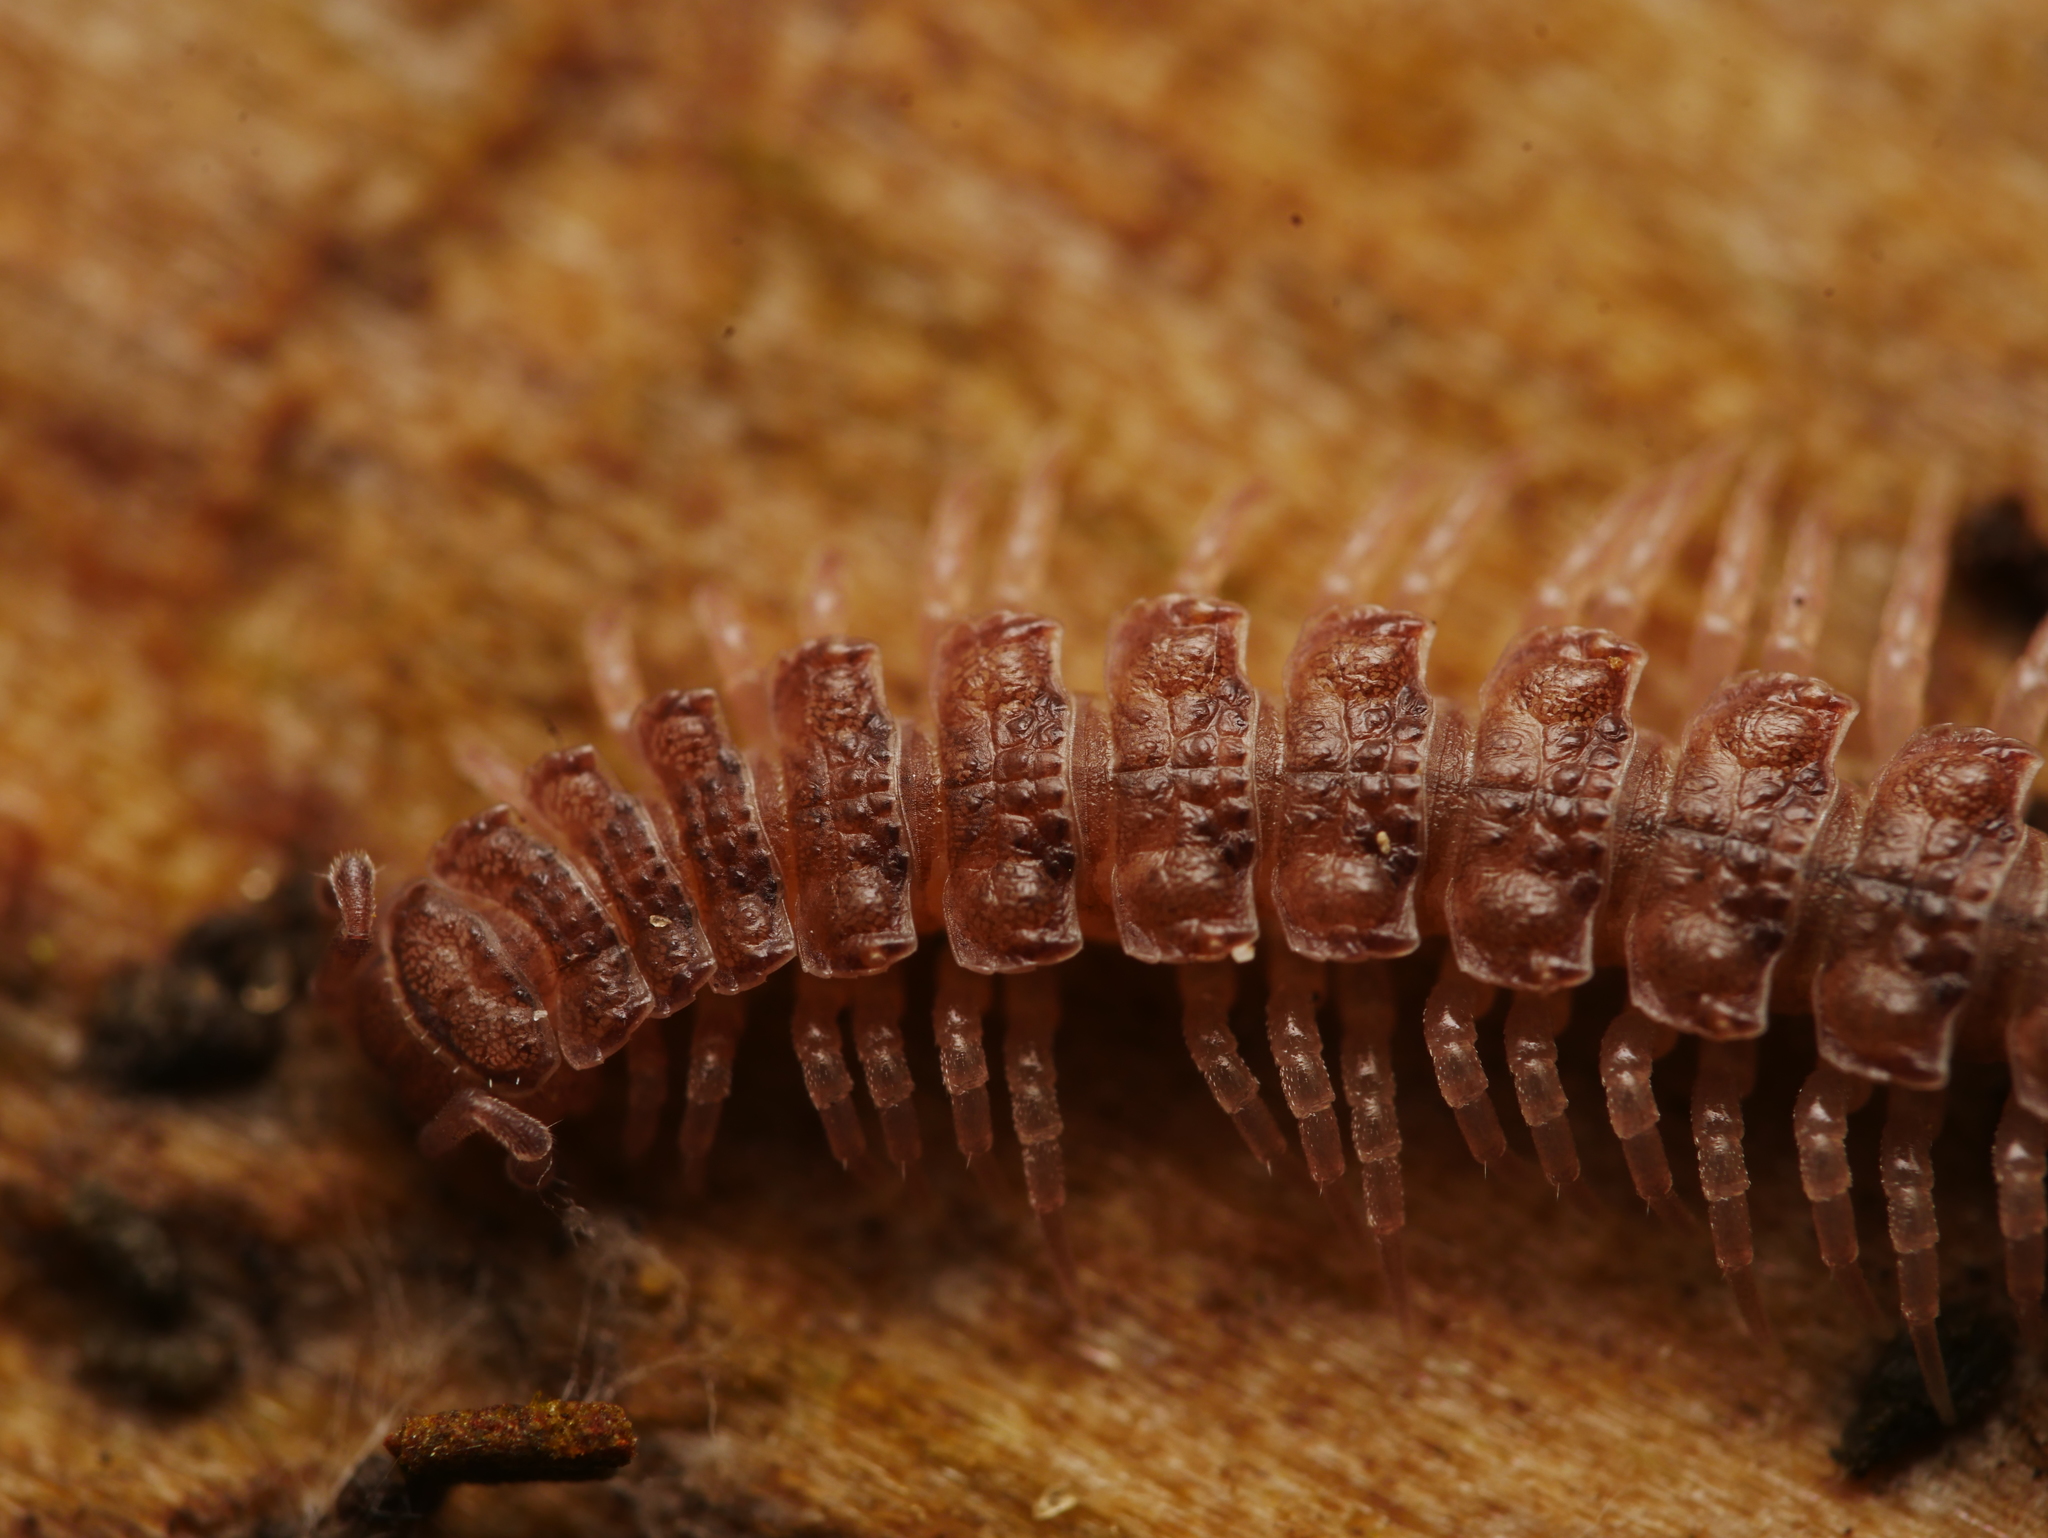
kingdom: Animalia
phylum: Arthropoda
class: Diplopoda
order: Polydesmida
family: Polydesmidae
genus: Polydesmus
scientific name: Polydesmus angustus
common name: Flat millipede
